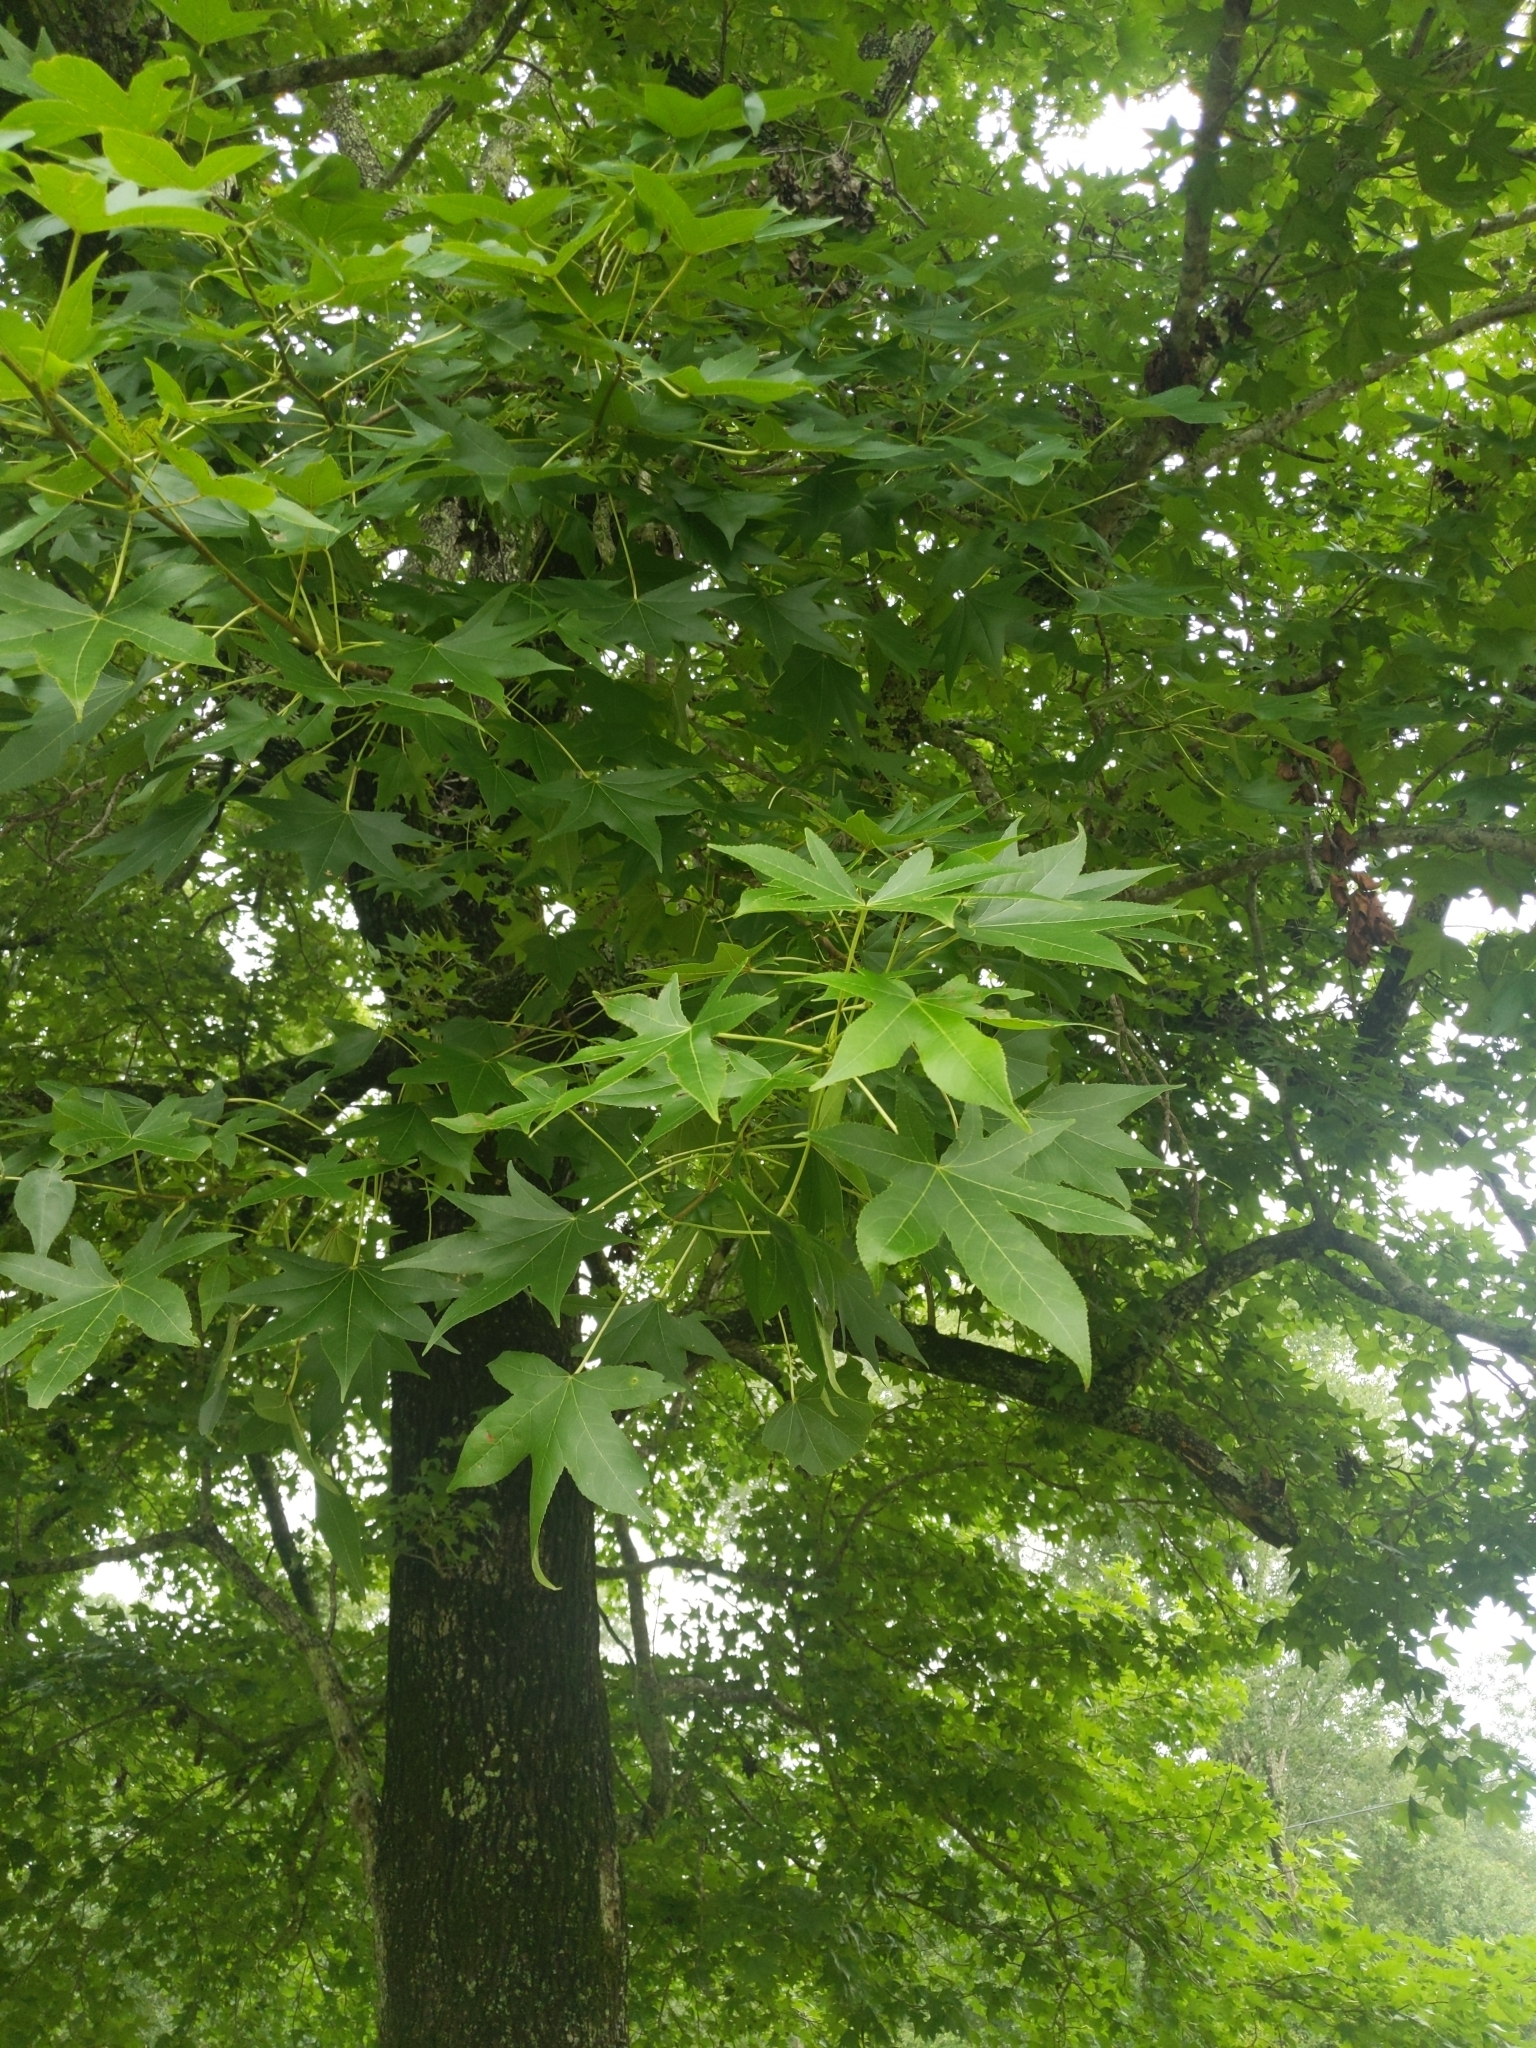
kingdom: Plantae
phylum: Tracheophyta
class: Magnoliopsida
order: Saxifragales
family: Altingiaceae
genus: Liquidambar
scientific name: Liquidambar styraciflua
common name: Sweet gum
